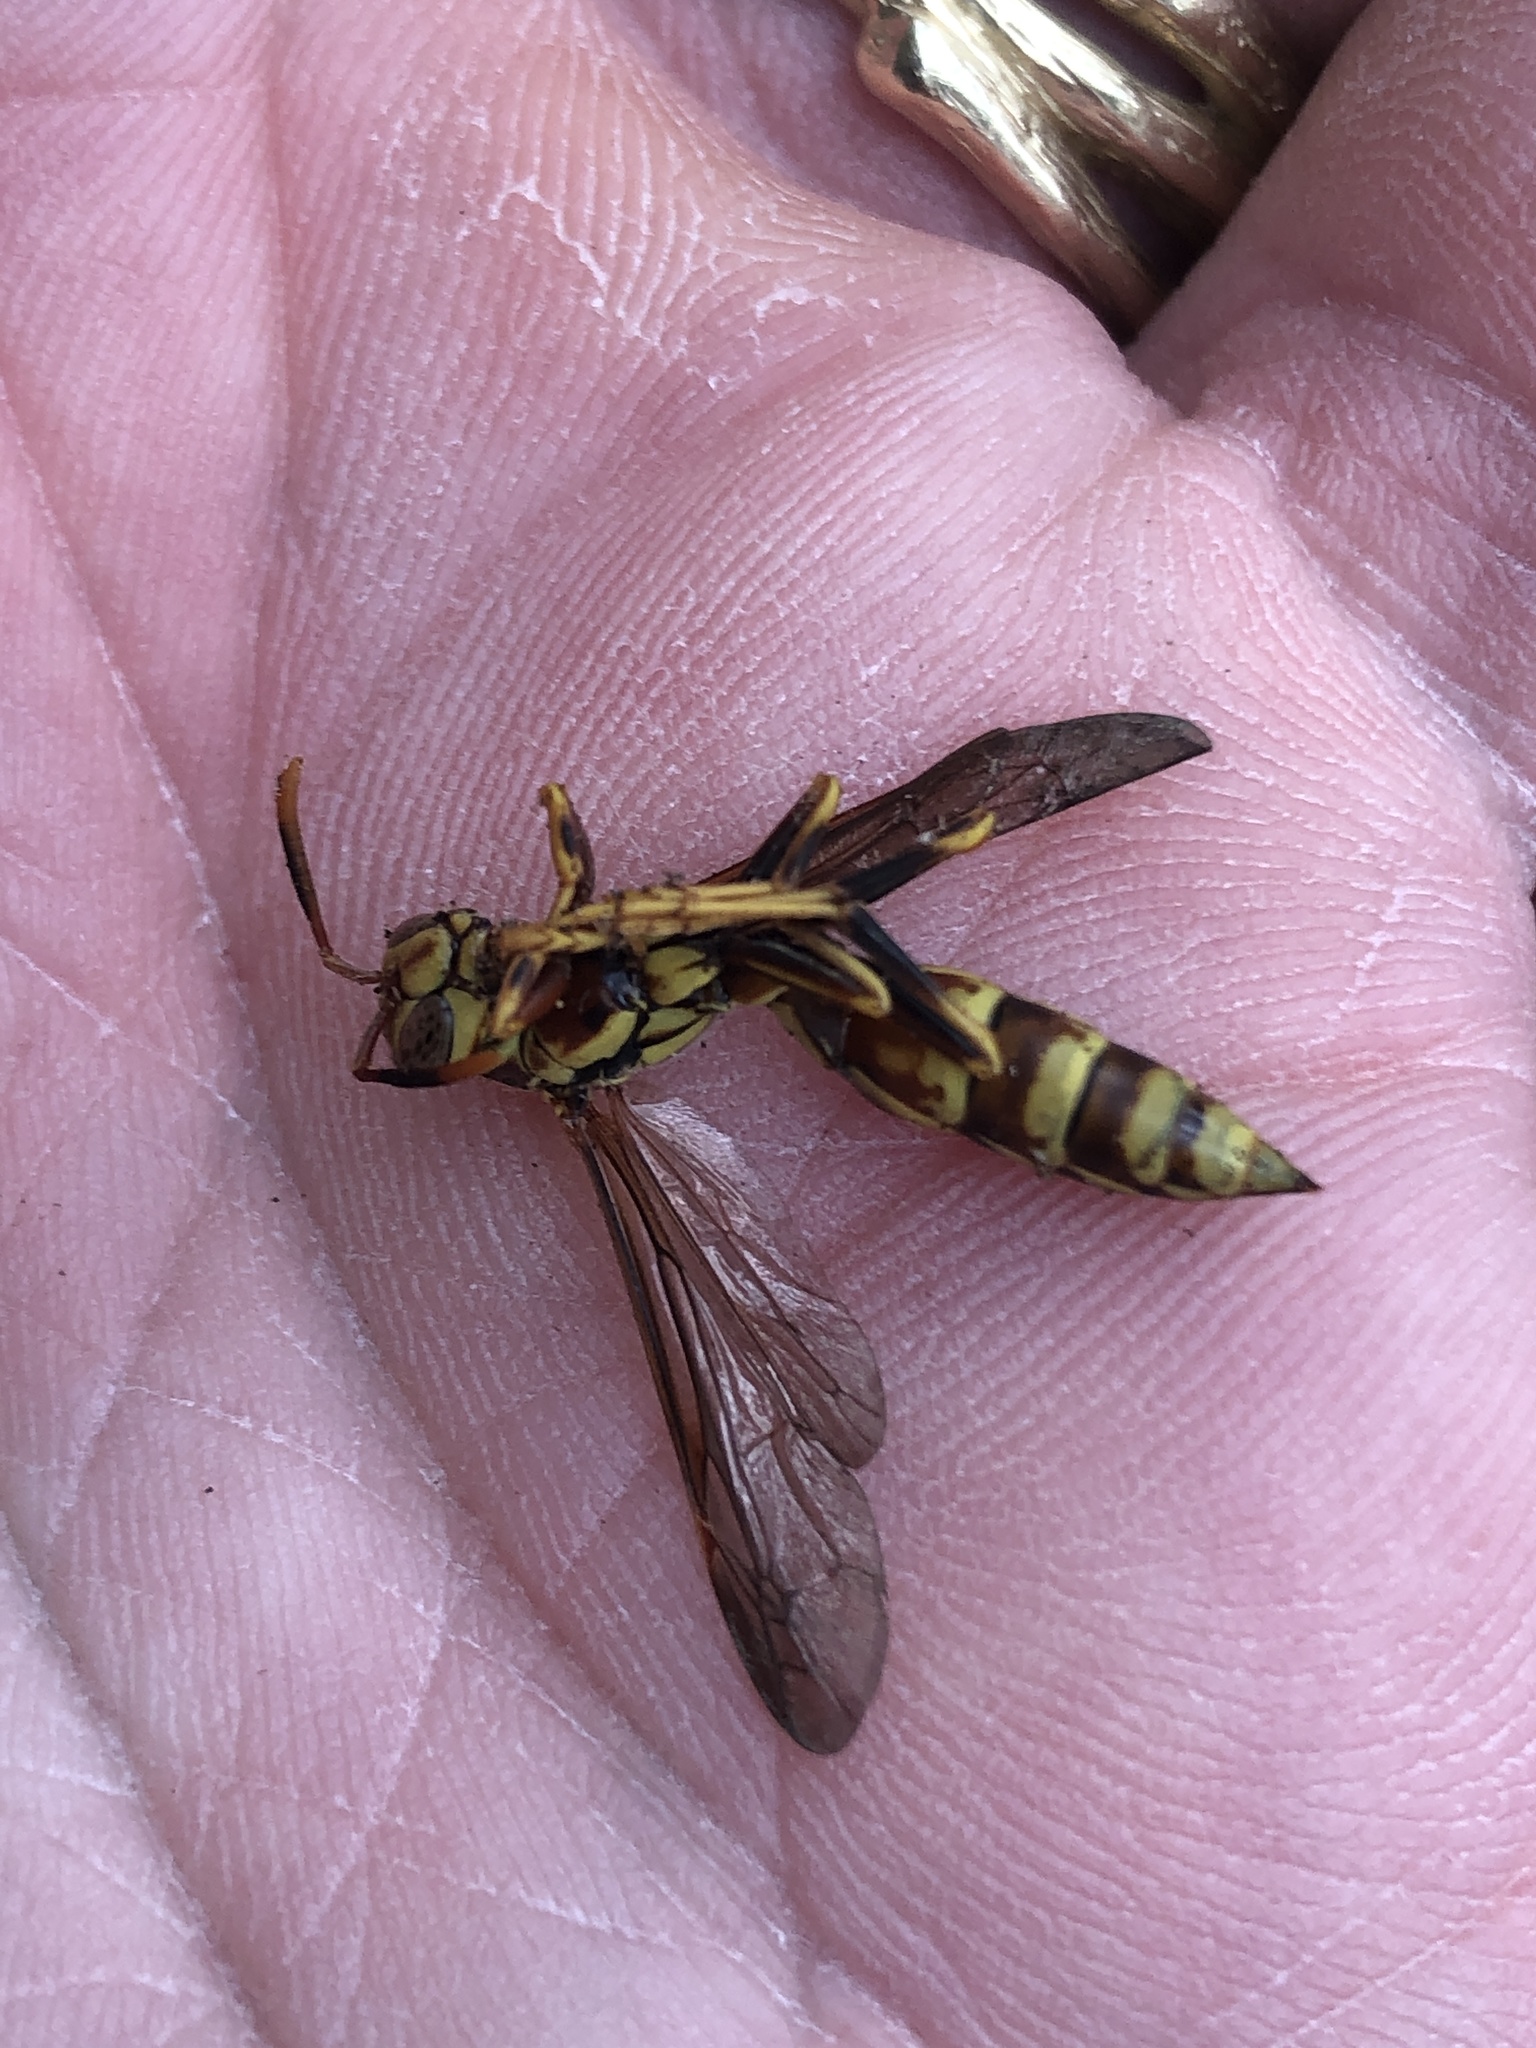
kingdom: Animalia
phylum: Arthropoda
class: Insecta
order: Hymenoptera
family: Eumenidae
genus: Polistes
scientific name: Polistes exclamans
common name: Paper wasp
